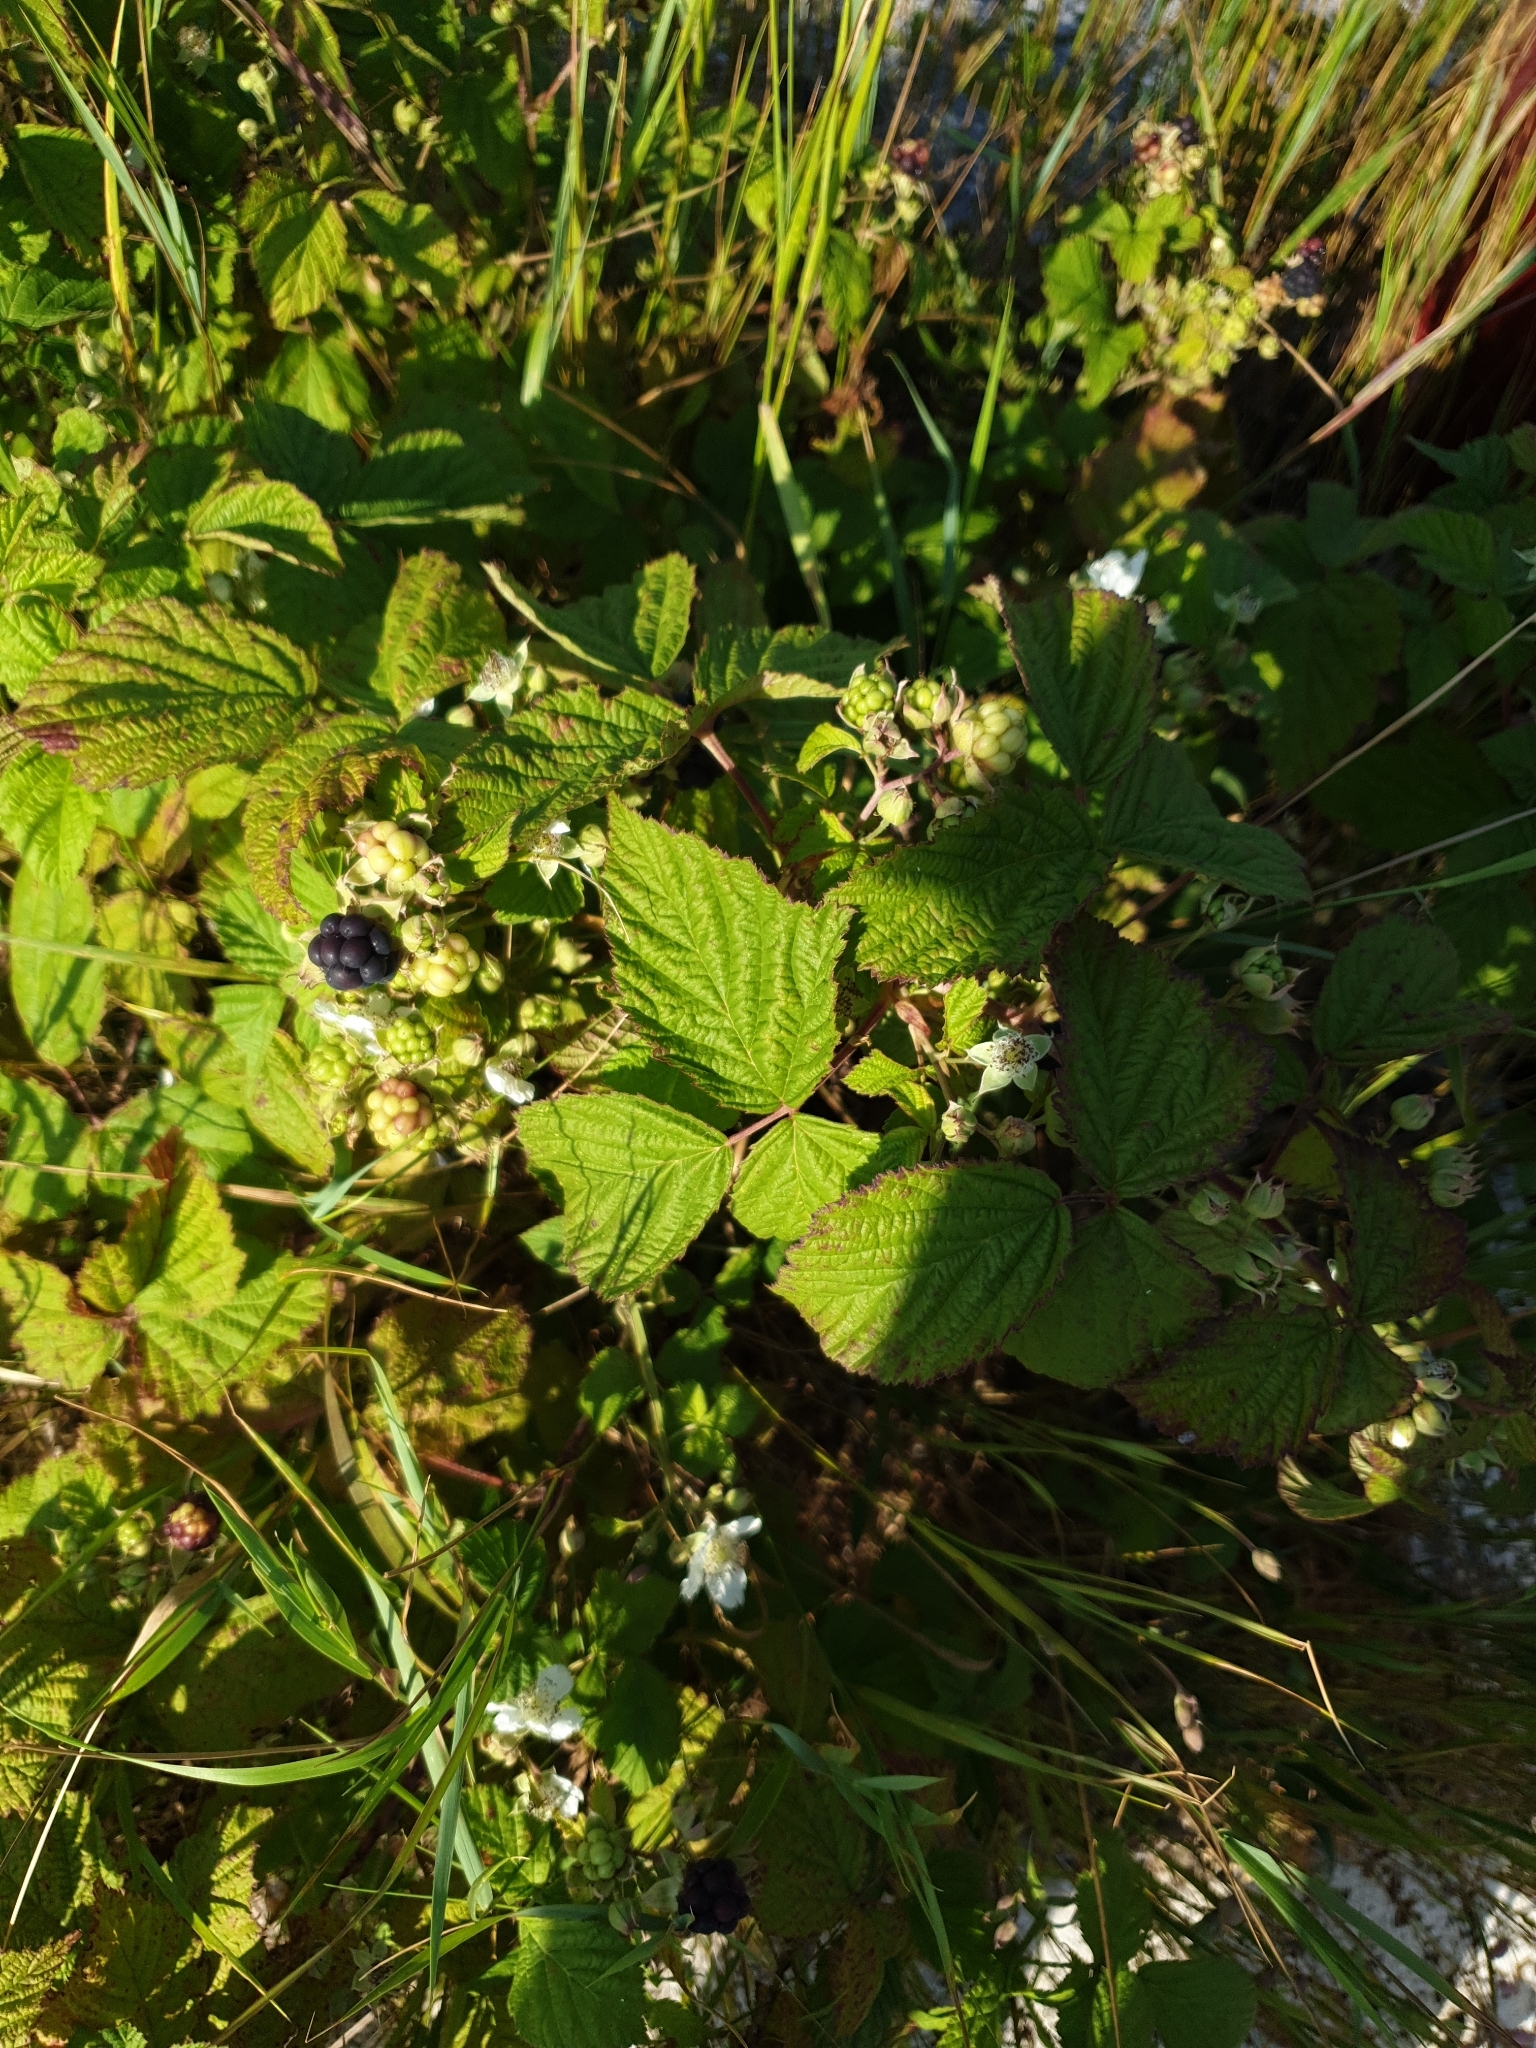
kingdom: Plantae
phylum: Tracheophyta
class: Magnoliopsida
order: Rosales
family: Rosaceae
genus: Rubus
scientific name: Rubus caesius
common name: Dewberry
